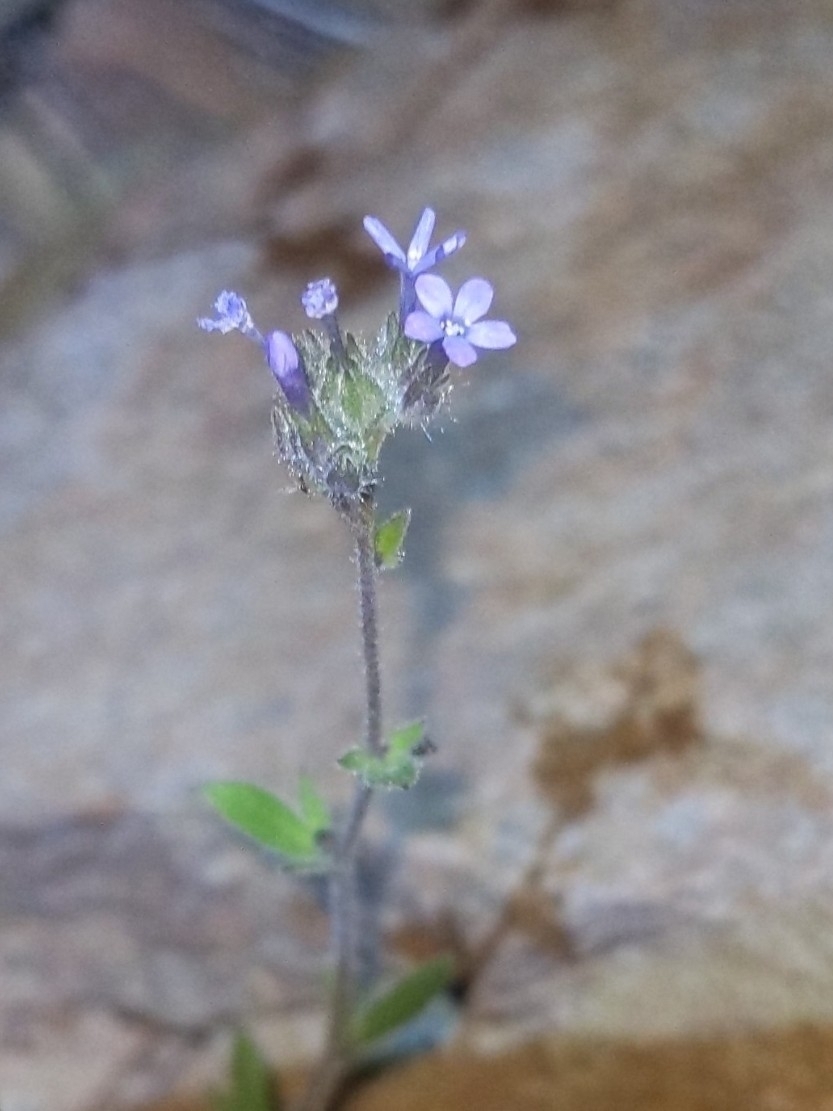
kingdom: Plantae
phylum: Tracheophyta
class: Magnoliopsida
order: Ericales
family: Polemoniaceae
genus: Allophyllum
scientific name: Allophyllum gilioides
